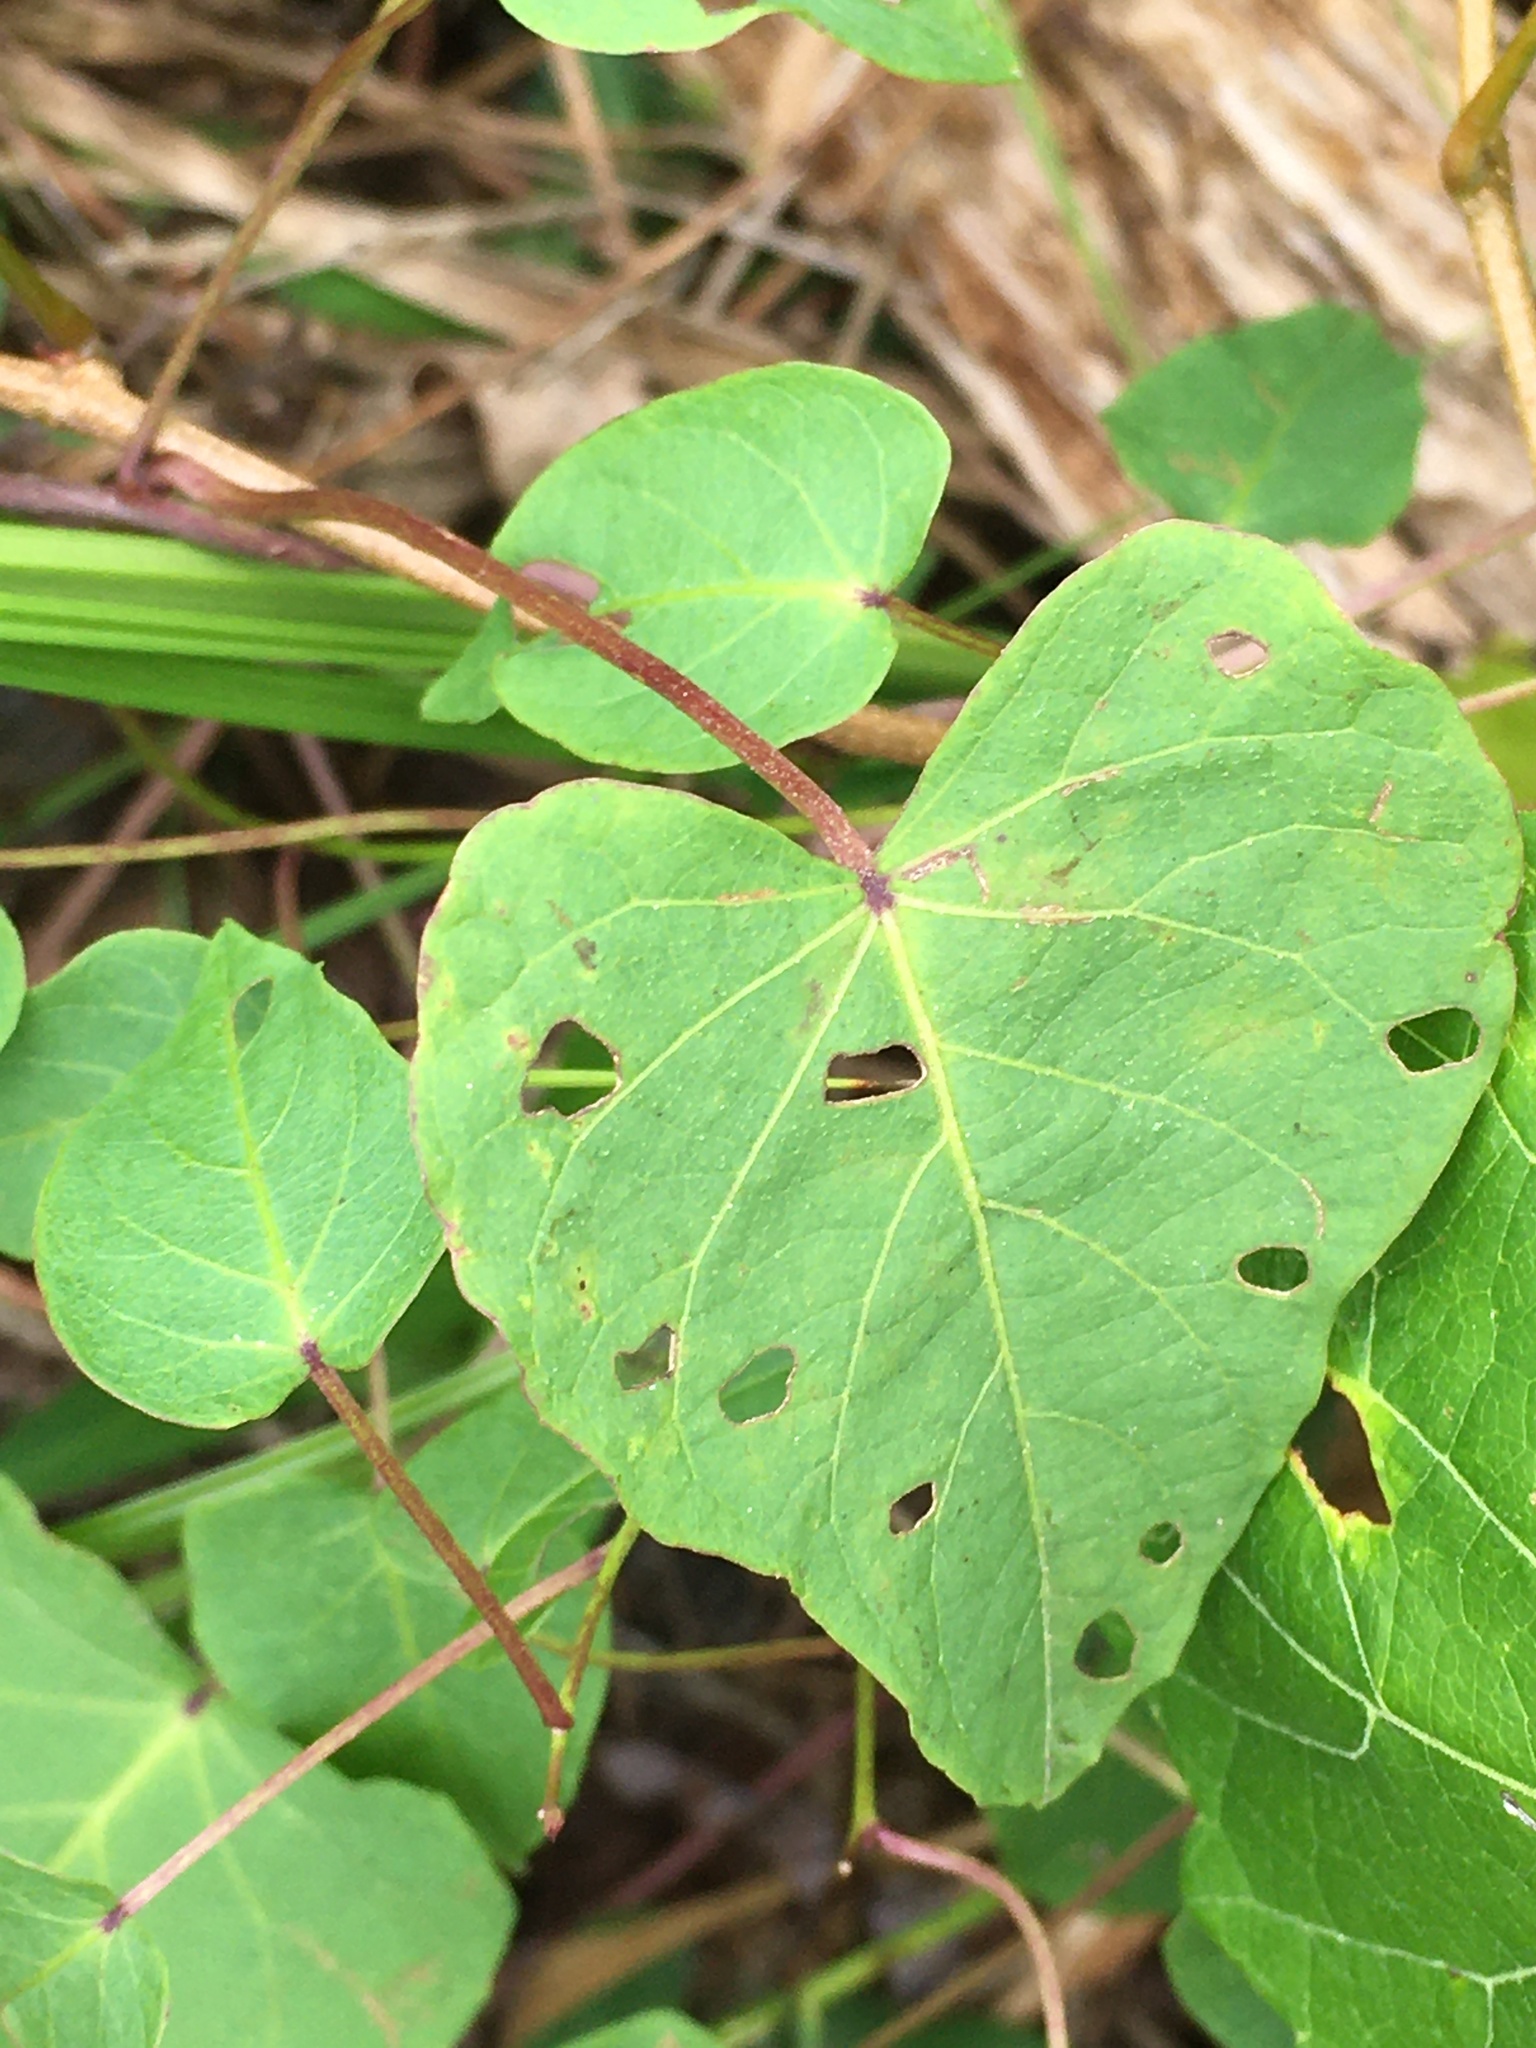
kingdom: Plantae
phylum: Tracheophyta
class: Magnoliopsida
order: Solanales
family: Convolvulaceae
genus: Ipomoea
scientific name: Ipomoea pandurata
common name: Man-of-the-earth
